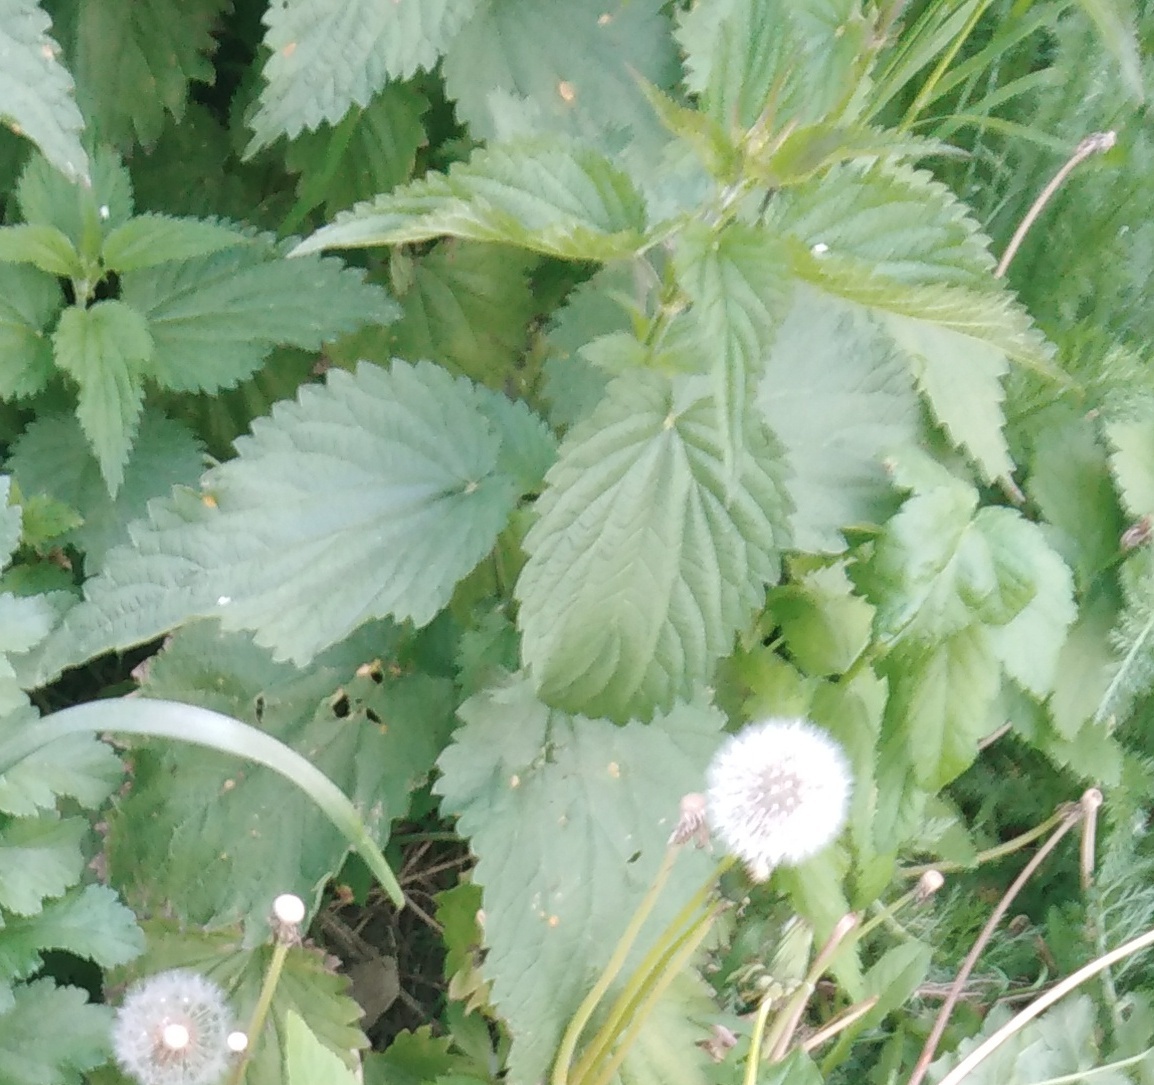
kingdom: Plantae
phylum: Tracheophyta
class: Magnoliopsida
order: Rosales
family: Urticaceae
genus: Urtica
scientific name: Urtica dioica
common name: Common nettle
